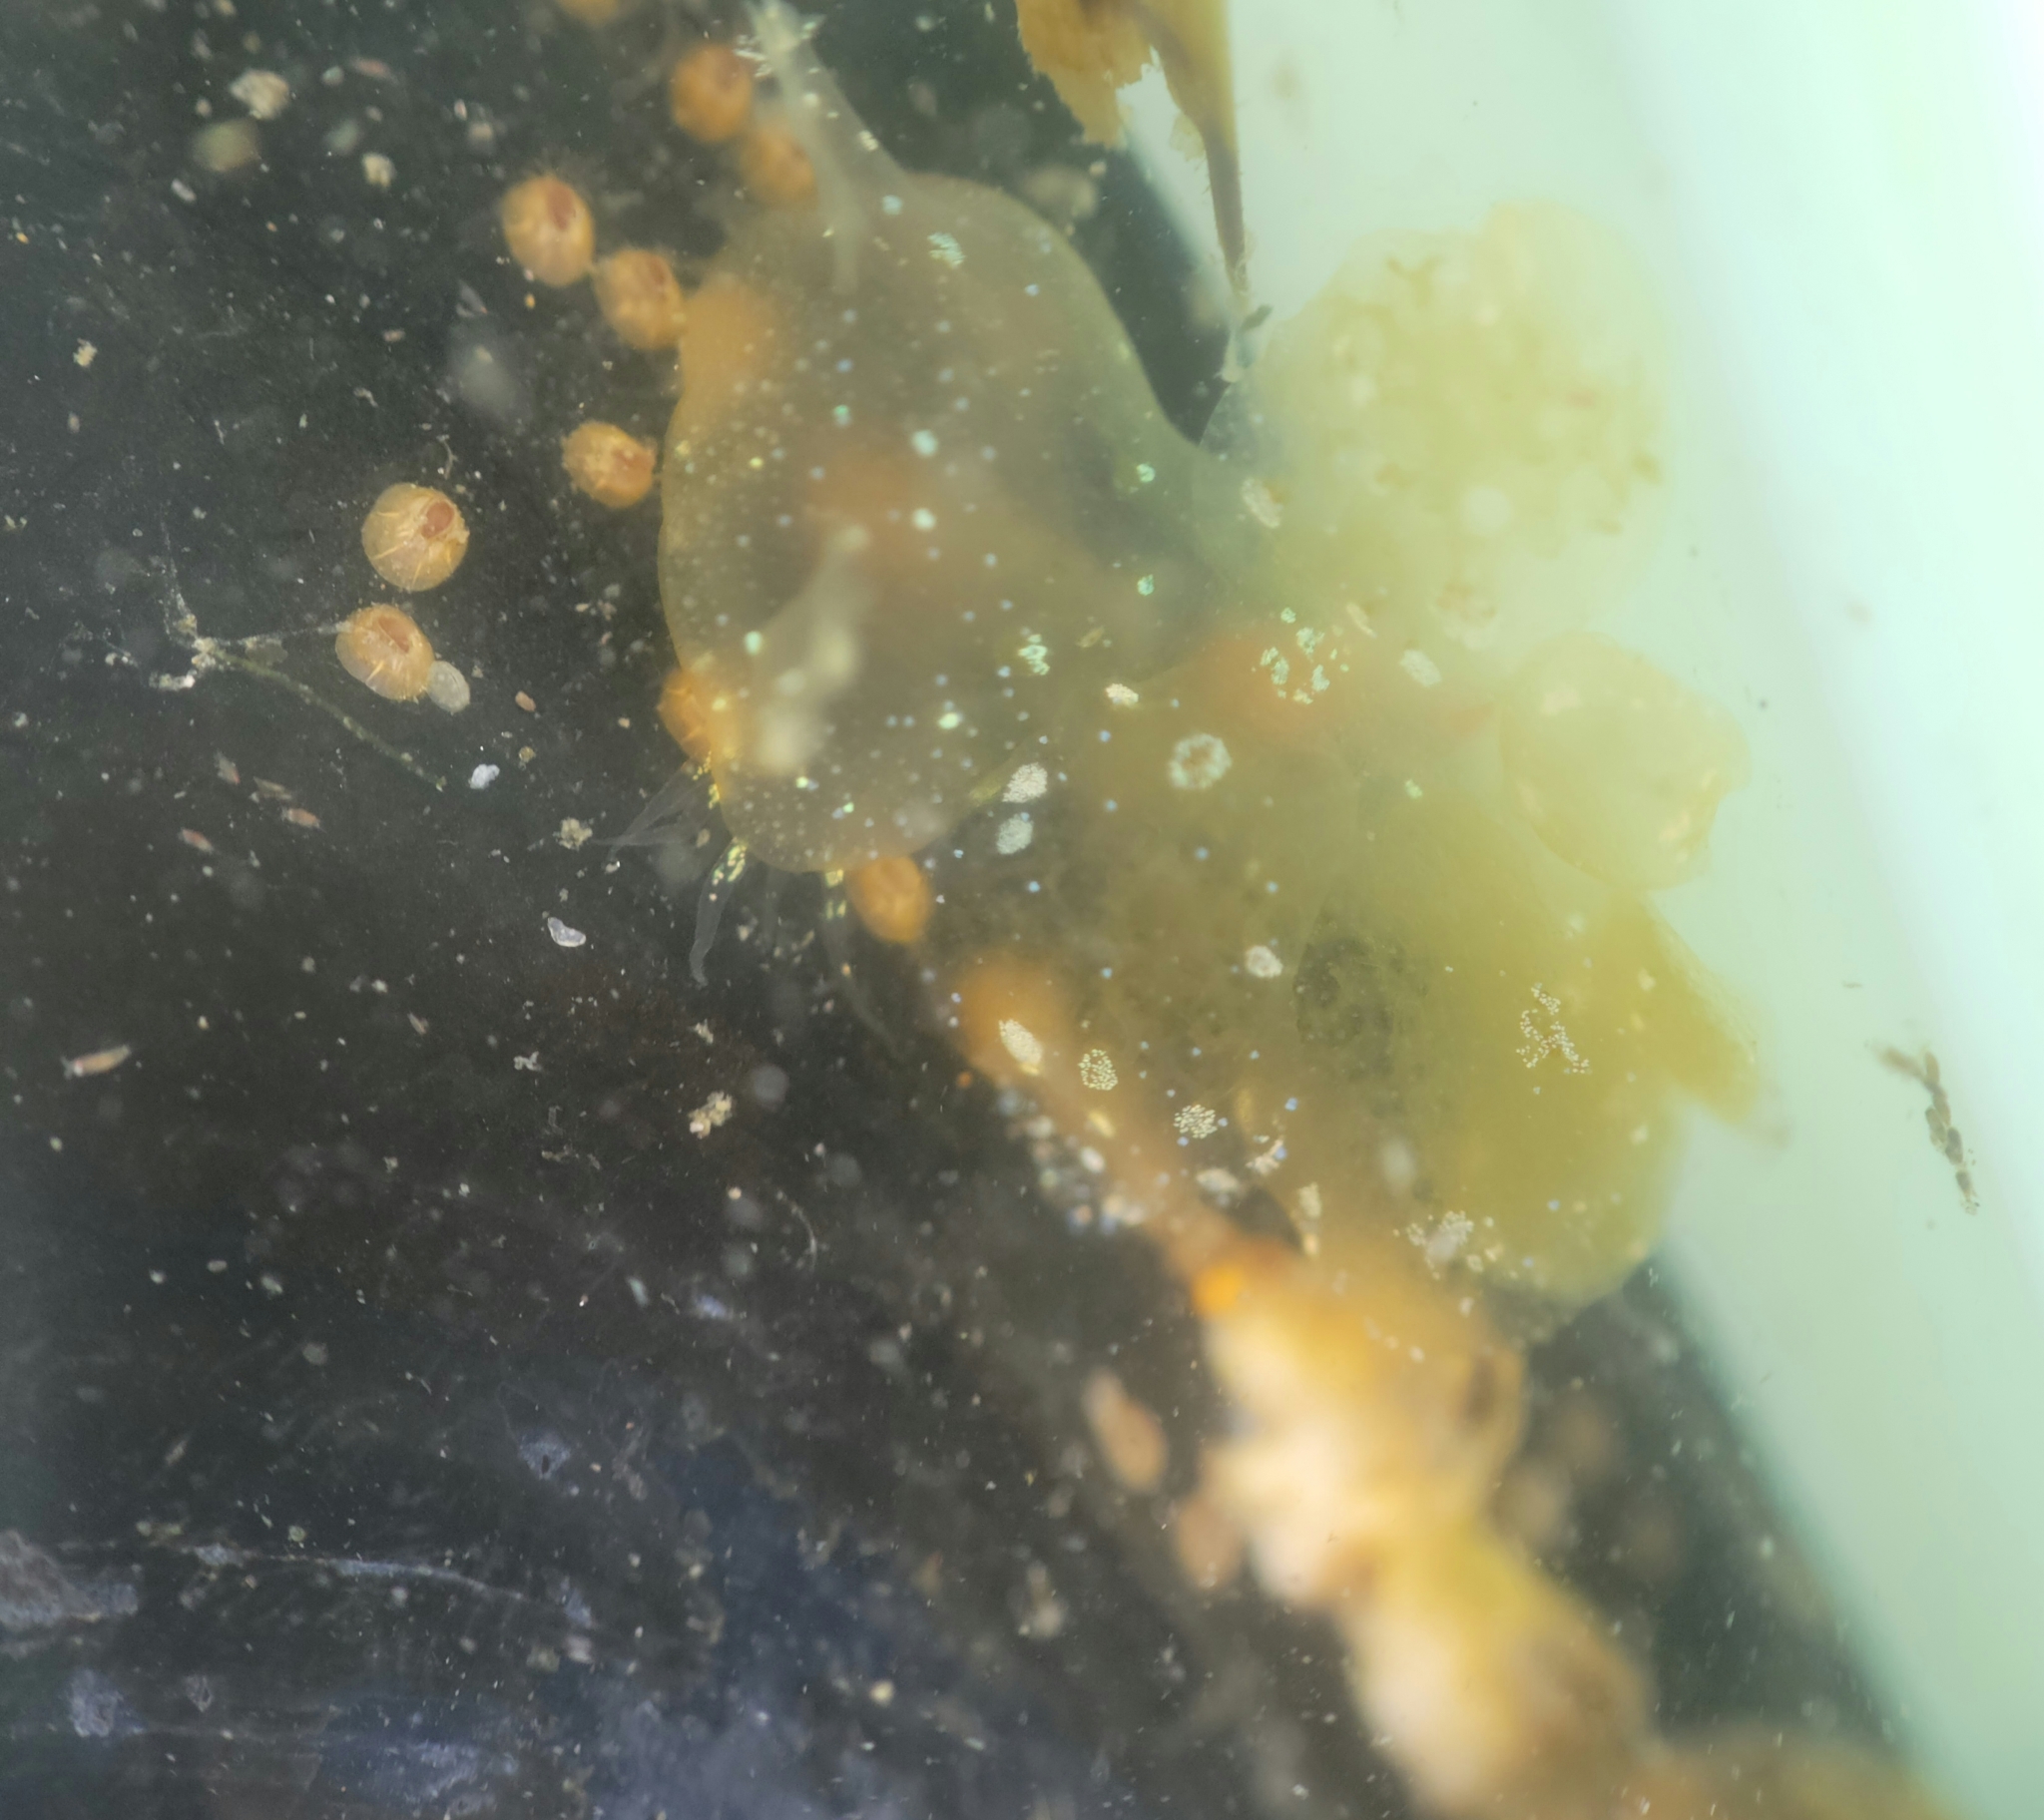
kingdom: Animalia
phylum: Mollusca
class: Gastropoda
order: Nudibranchia
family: Tethydidae
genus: Melibe
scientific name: Melibe leonina
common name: Lion nudibranch
